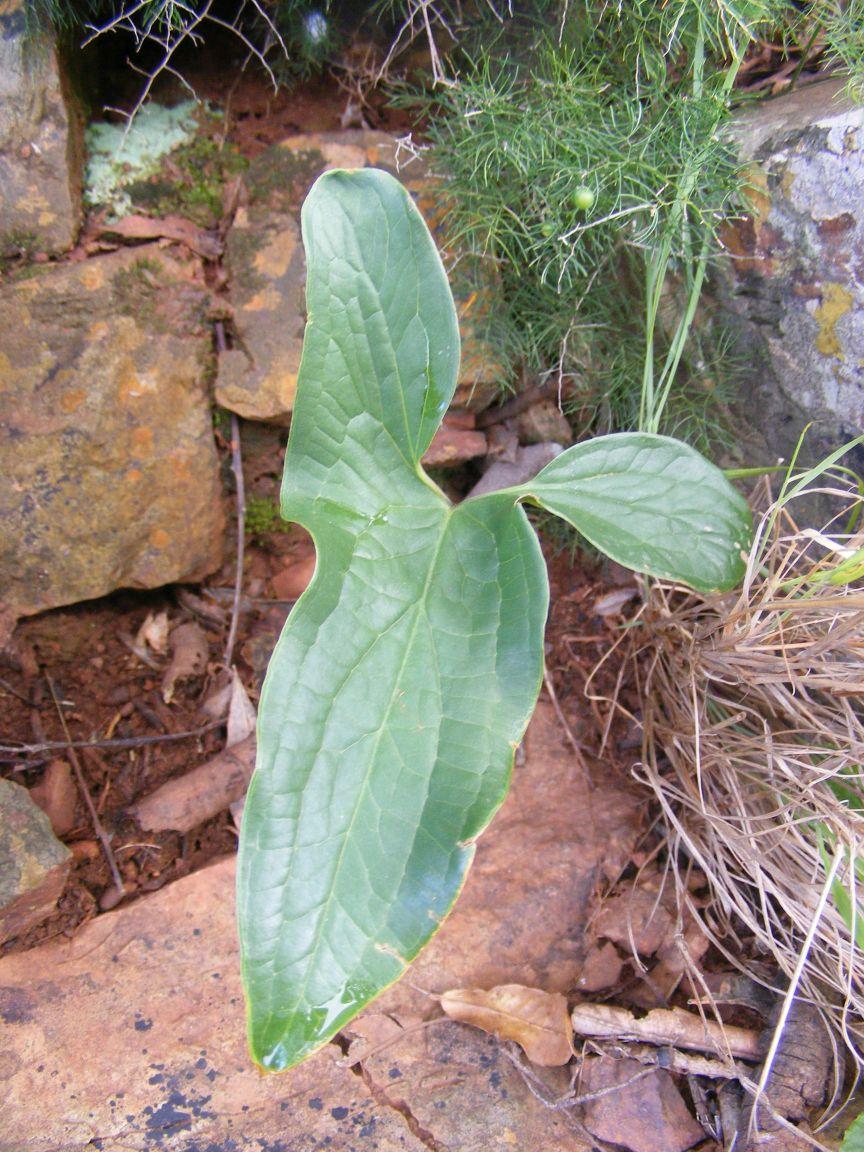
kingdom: Plantae
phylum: Tracheophyta
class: Liliopsida
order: Alismatales
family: Araceae
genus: Stylochaeton
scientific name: Stylochaeton natalensis
